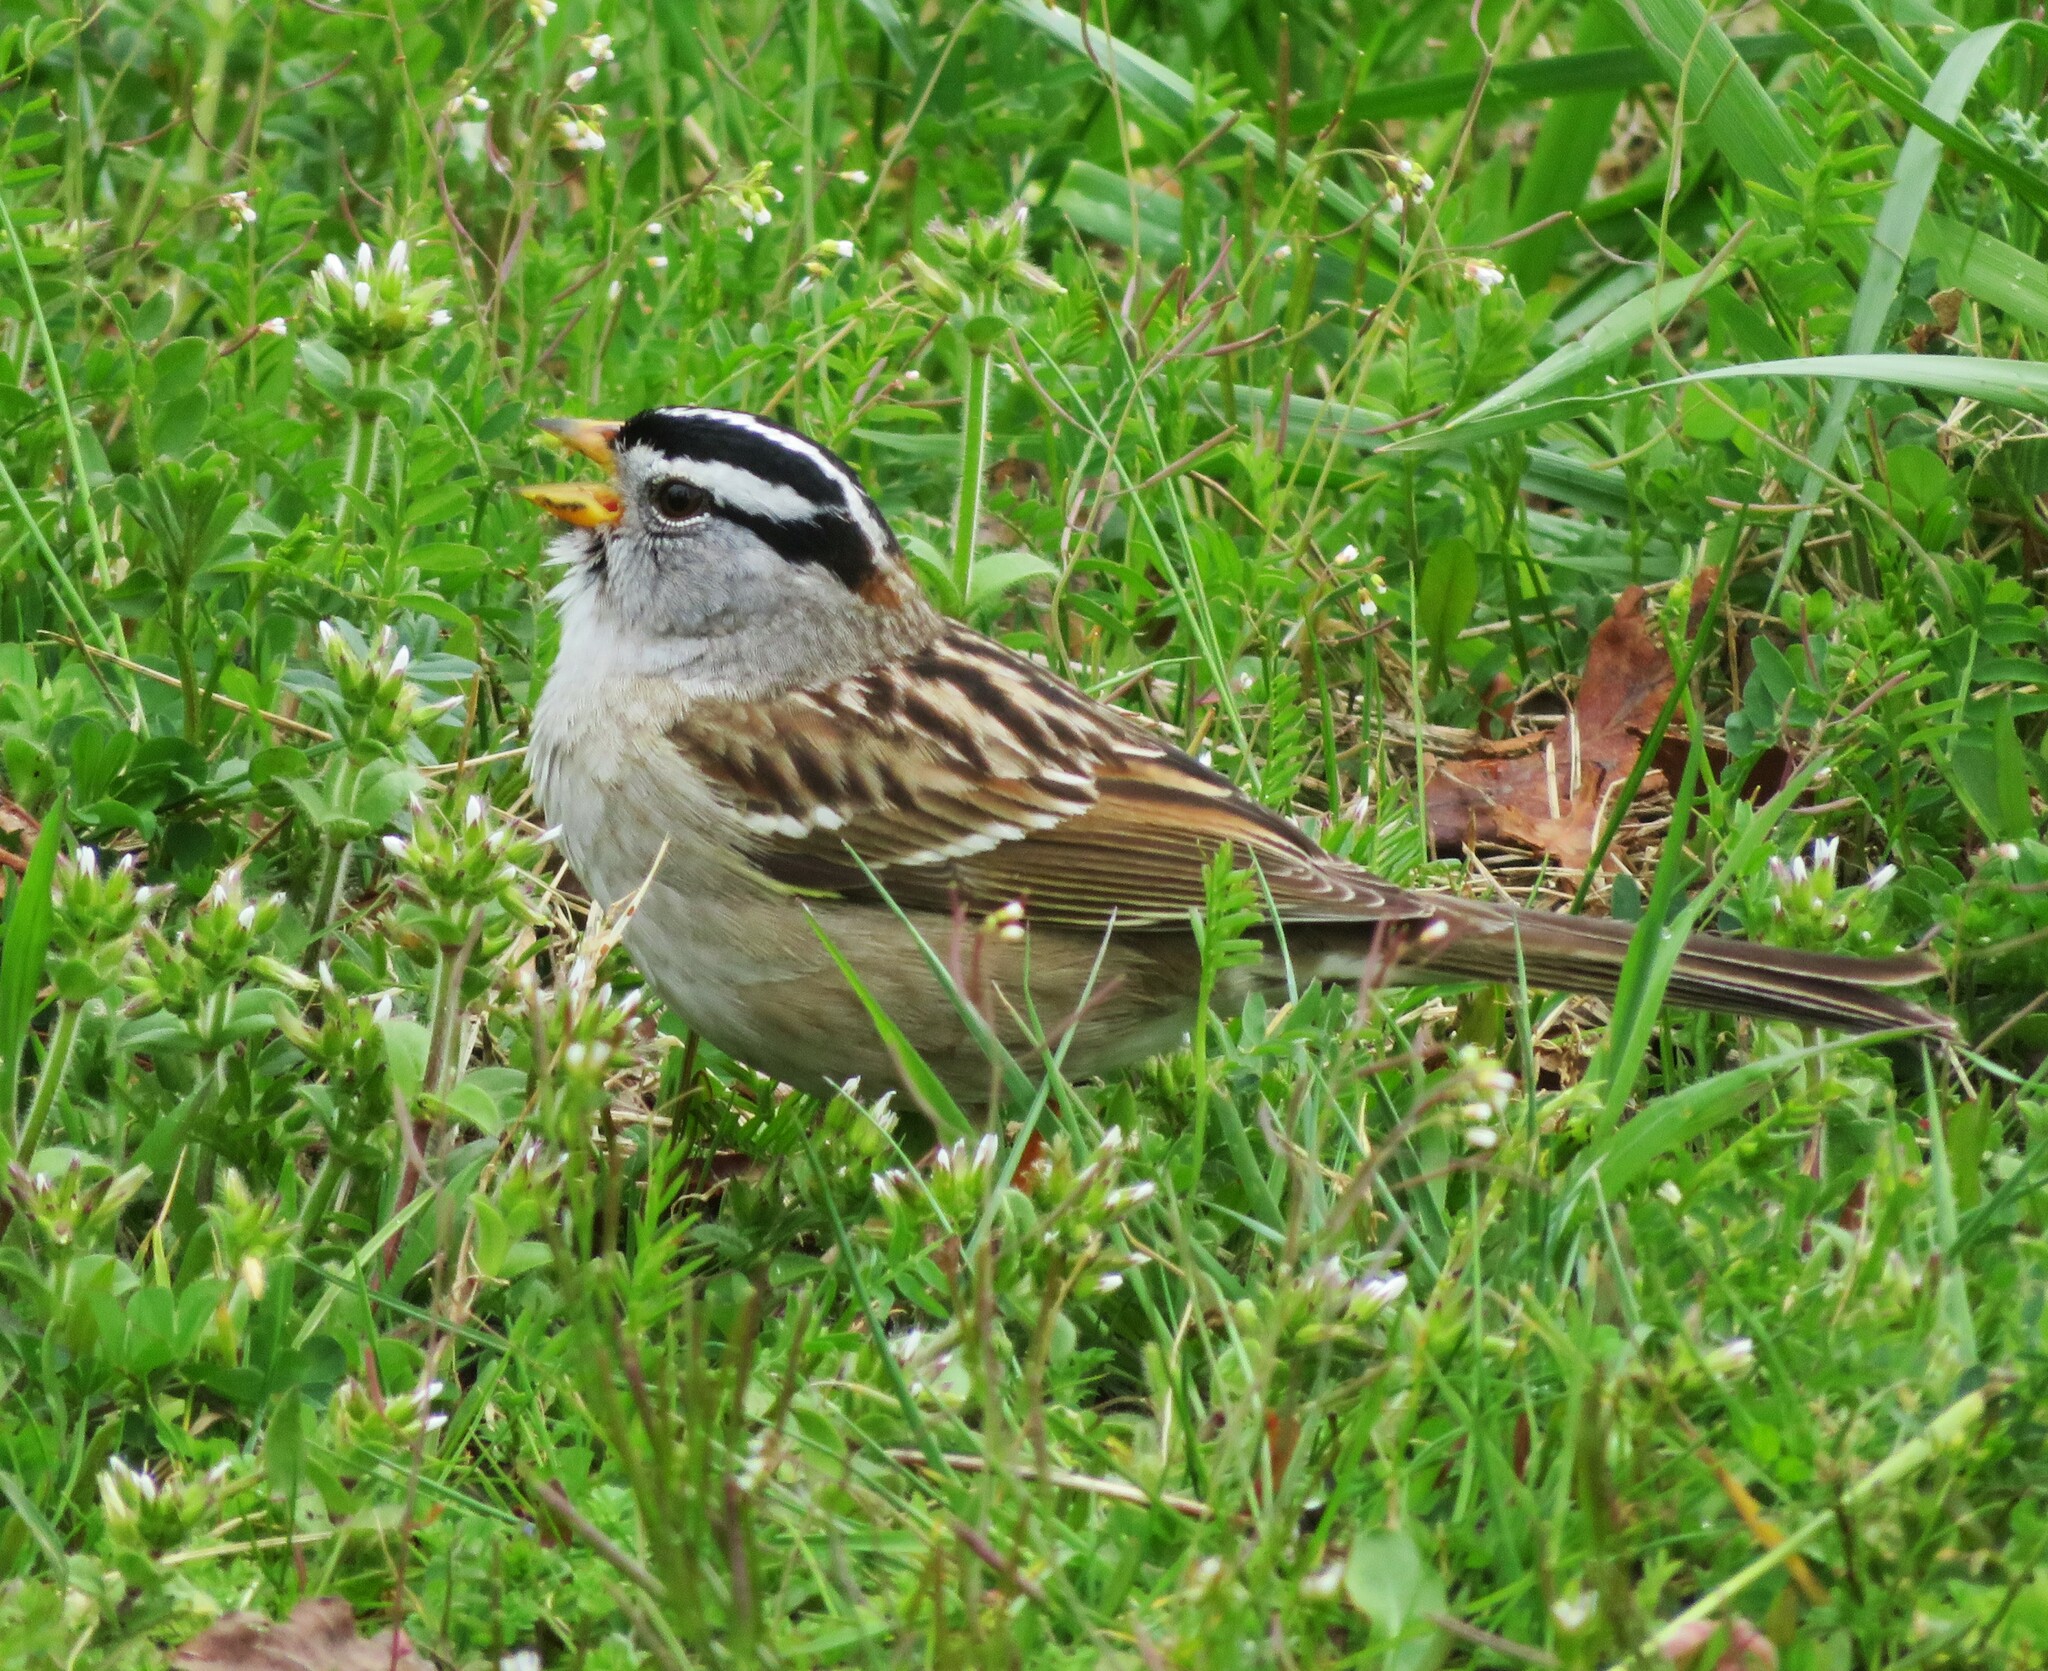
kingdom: Animalia
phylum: Chordata
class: Aves
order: Passeriformes
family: Passerellidae
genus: Zonotrichia
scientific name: Zonotrichia leucophrys
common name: White-crowned sparrow
